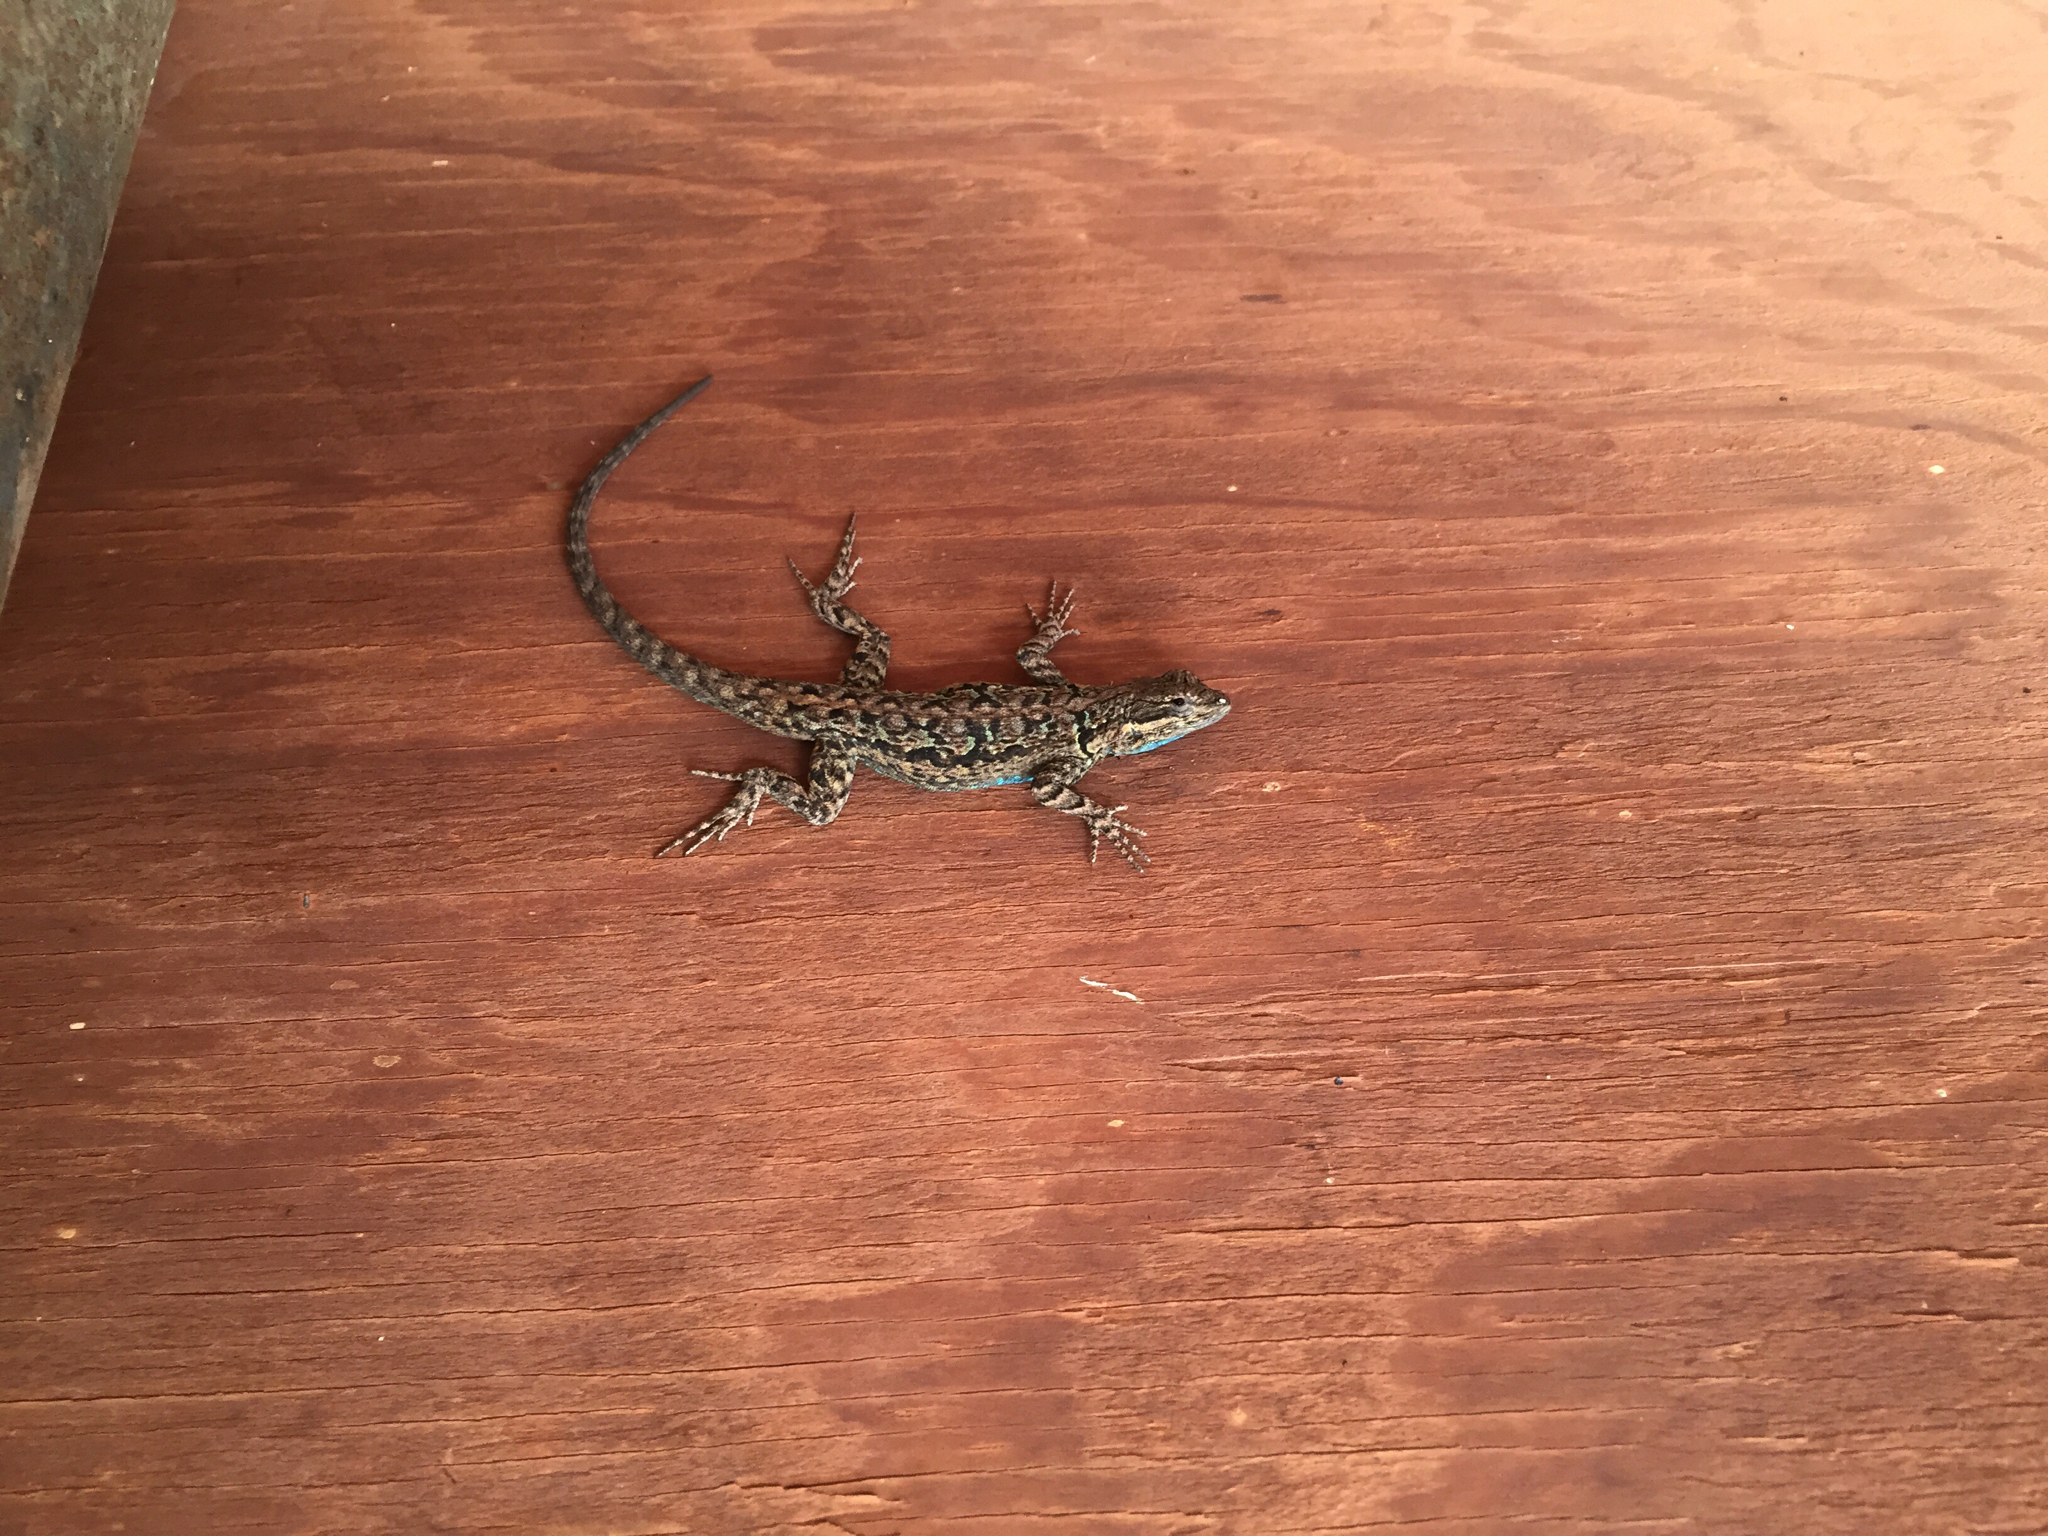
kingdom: Animalia
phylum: Chordata
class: Squamata
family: Phrynosomatidae
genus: Urosaurus
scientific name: Urosaurus ornatus
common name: Ornate tree lizard
